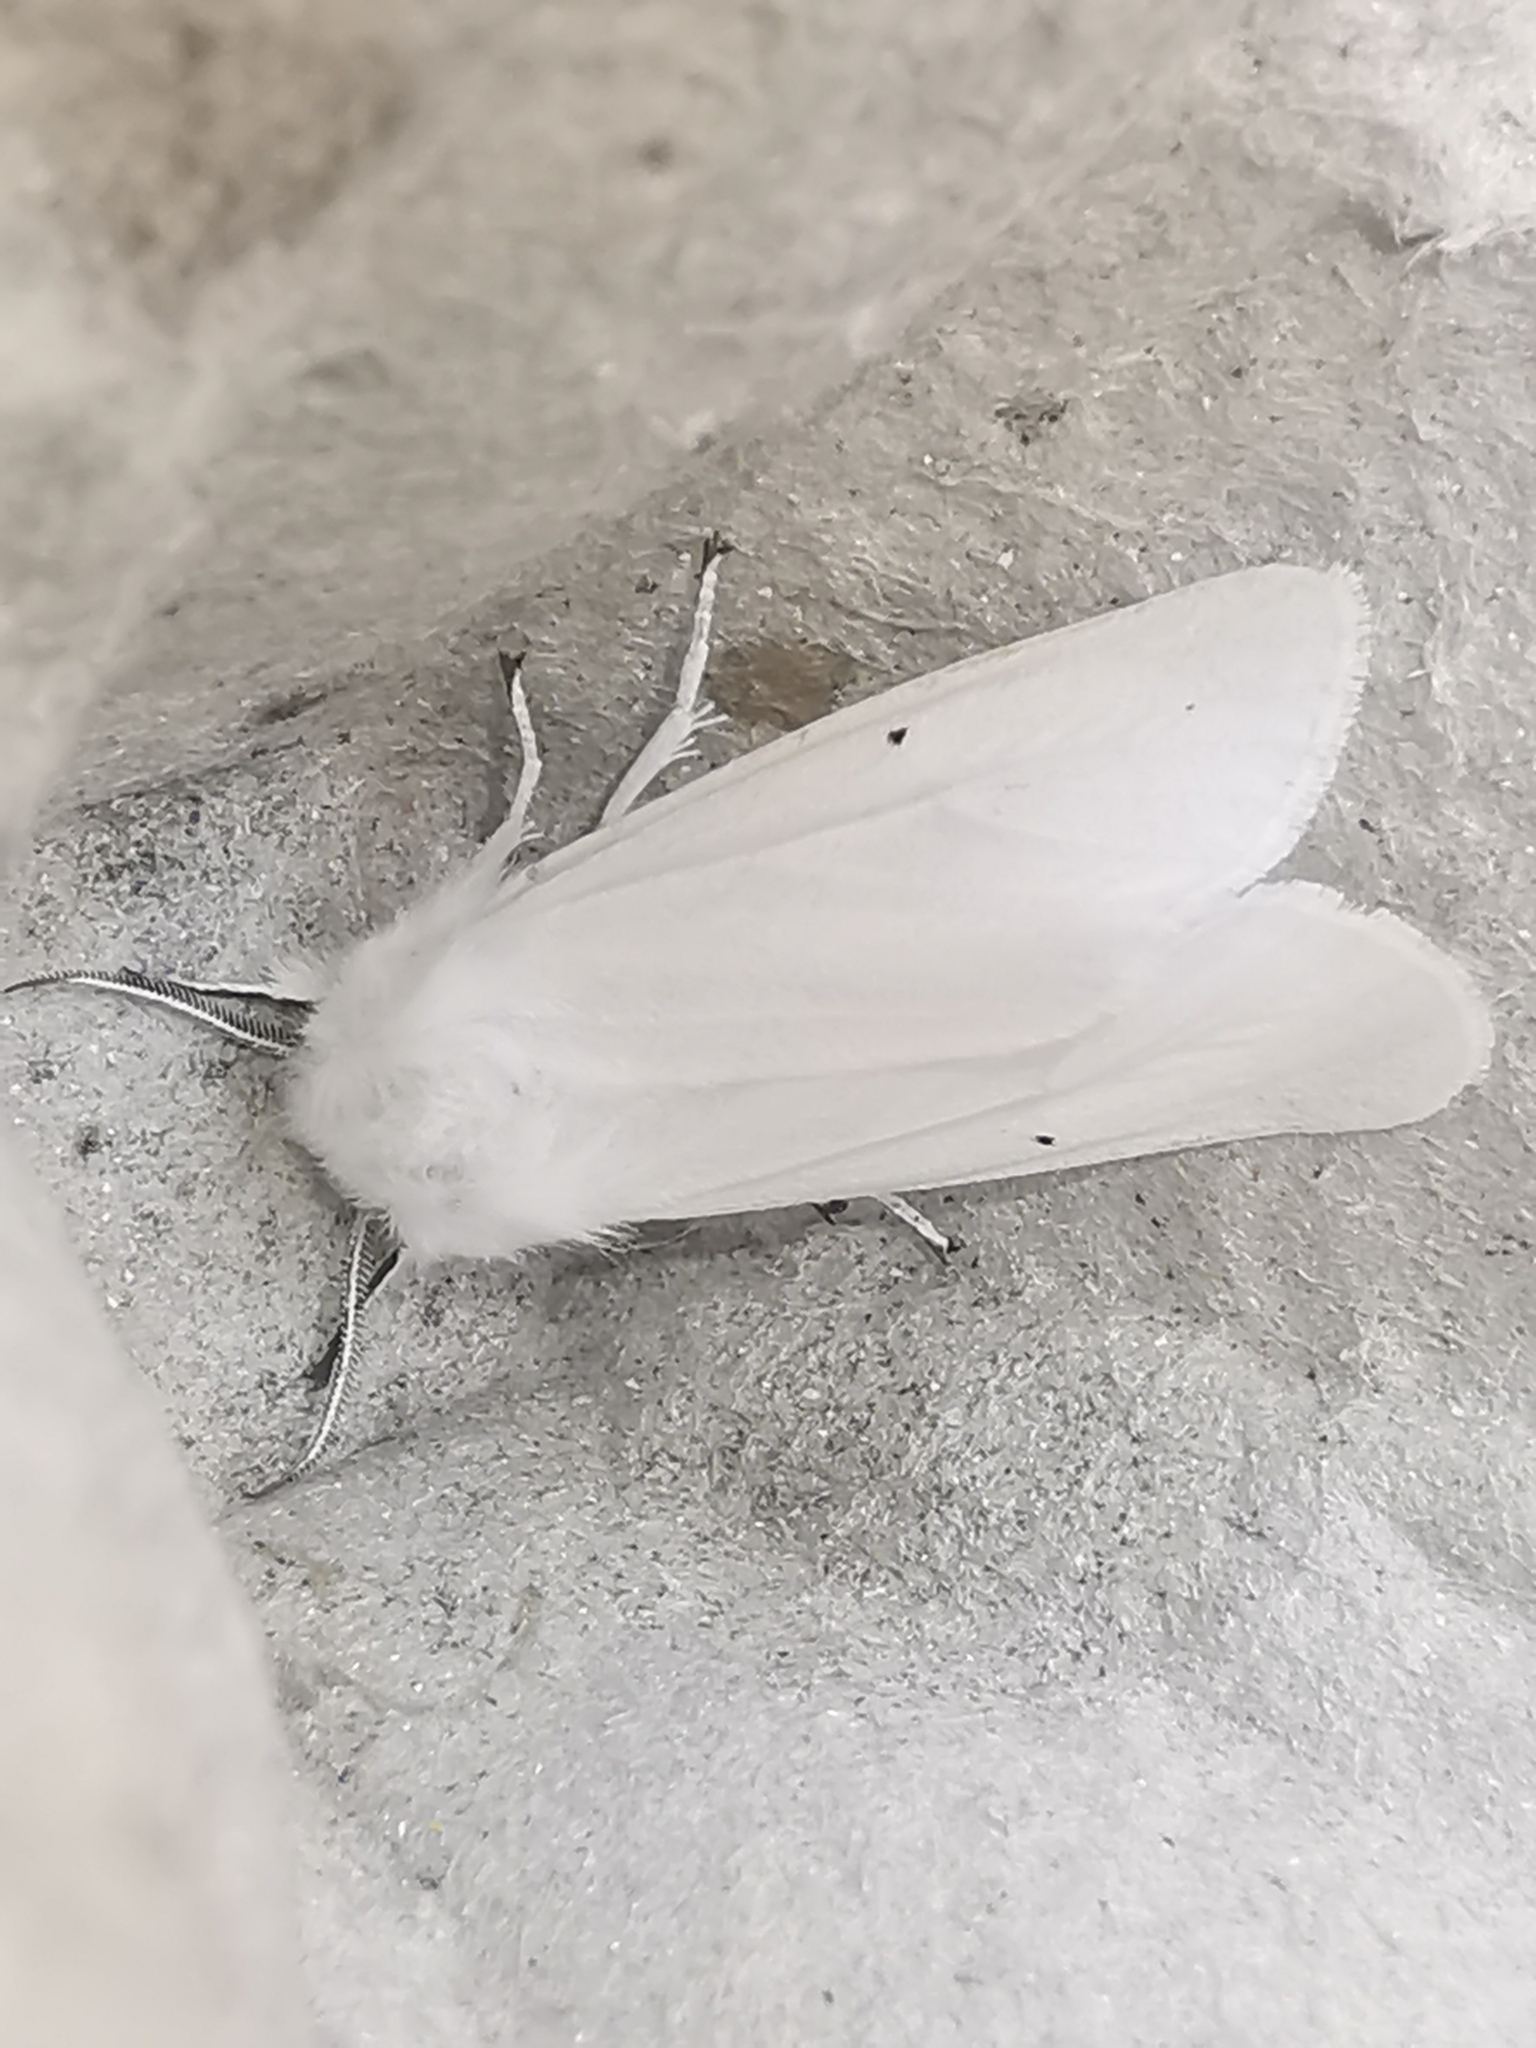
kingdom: Animalia
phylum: Arthropoda
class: Insecta
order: Lepidoptera
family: Erebidae
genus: Spilosoma
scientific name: Spilosoma urticae
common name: Water ermine
